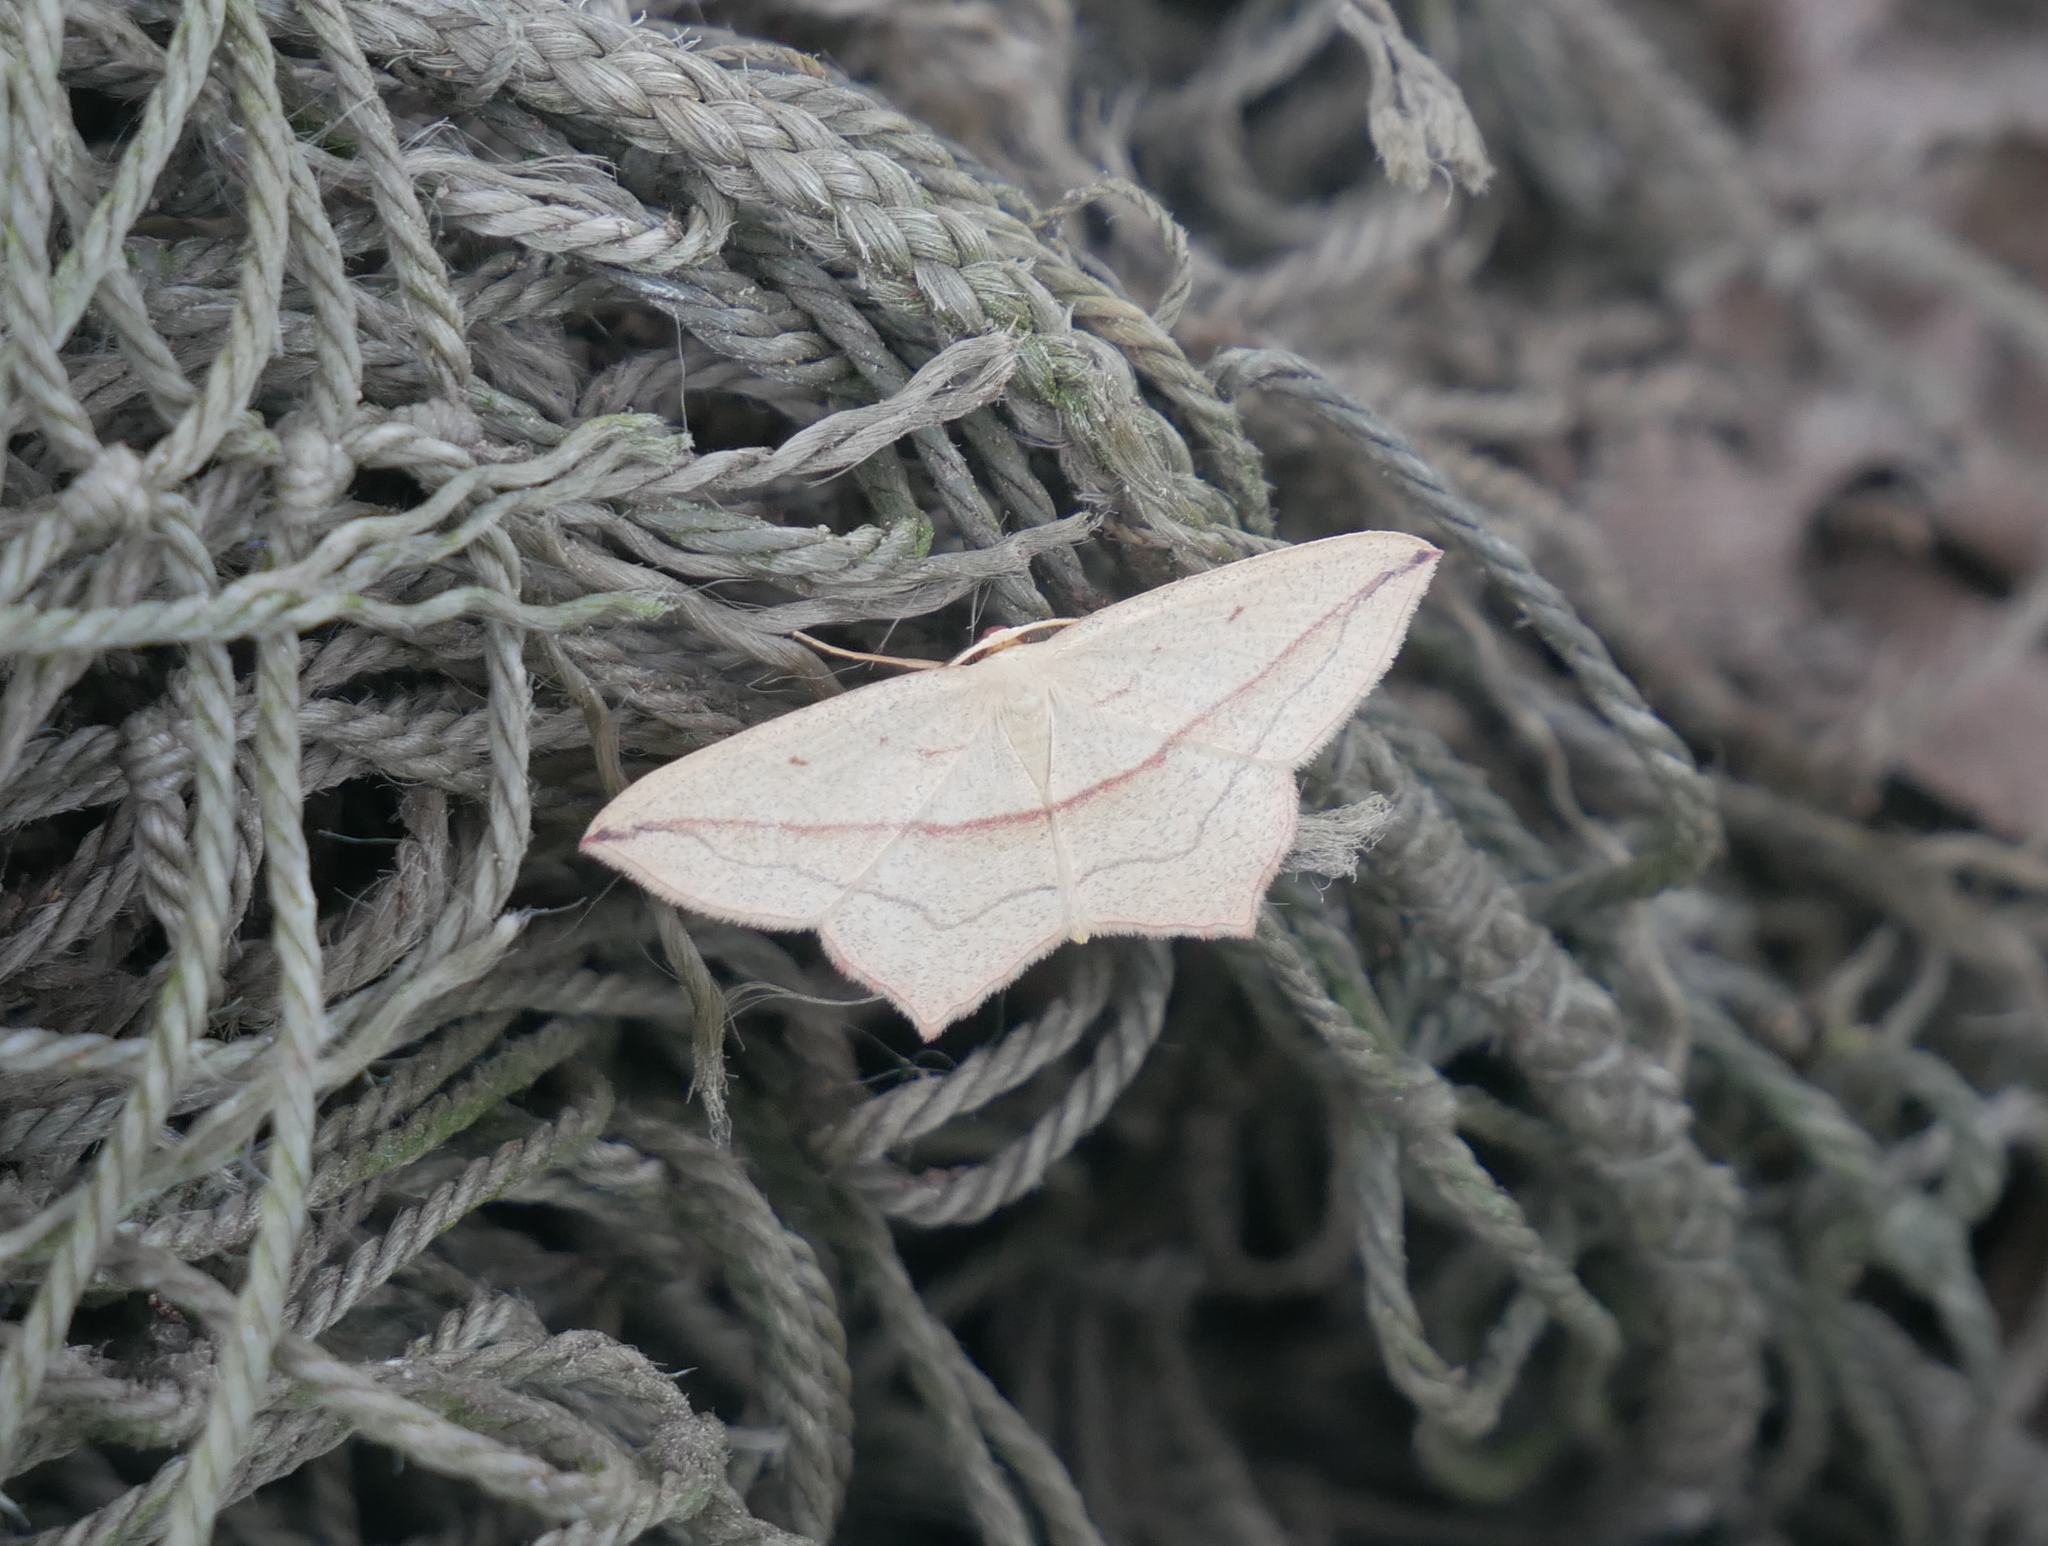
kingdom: Animalia
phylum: Arthropoda
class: Insecta
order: Lepidoptera
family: Geometridae
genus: Timandra
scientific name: Timandra comae
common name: Blood-vein
